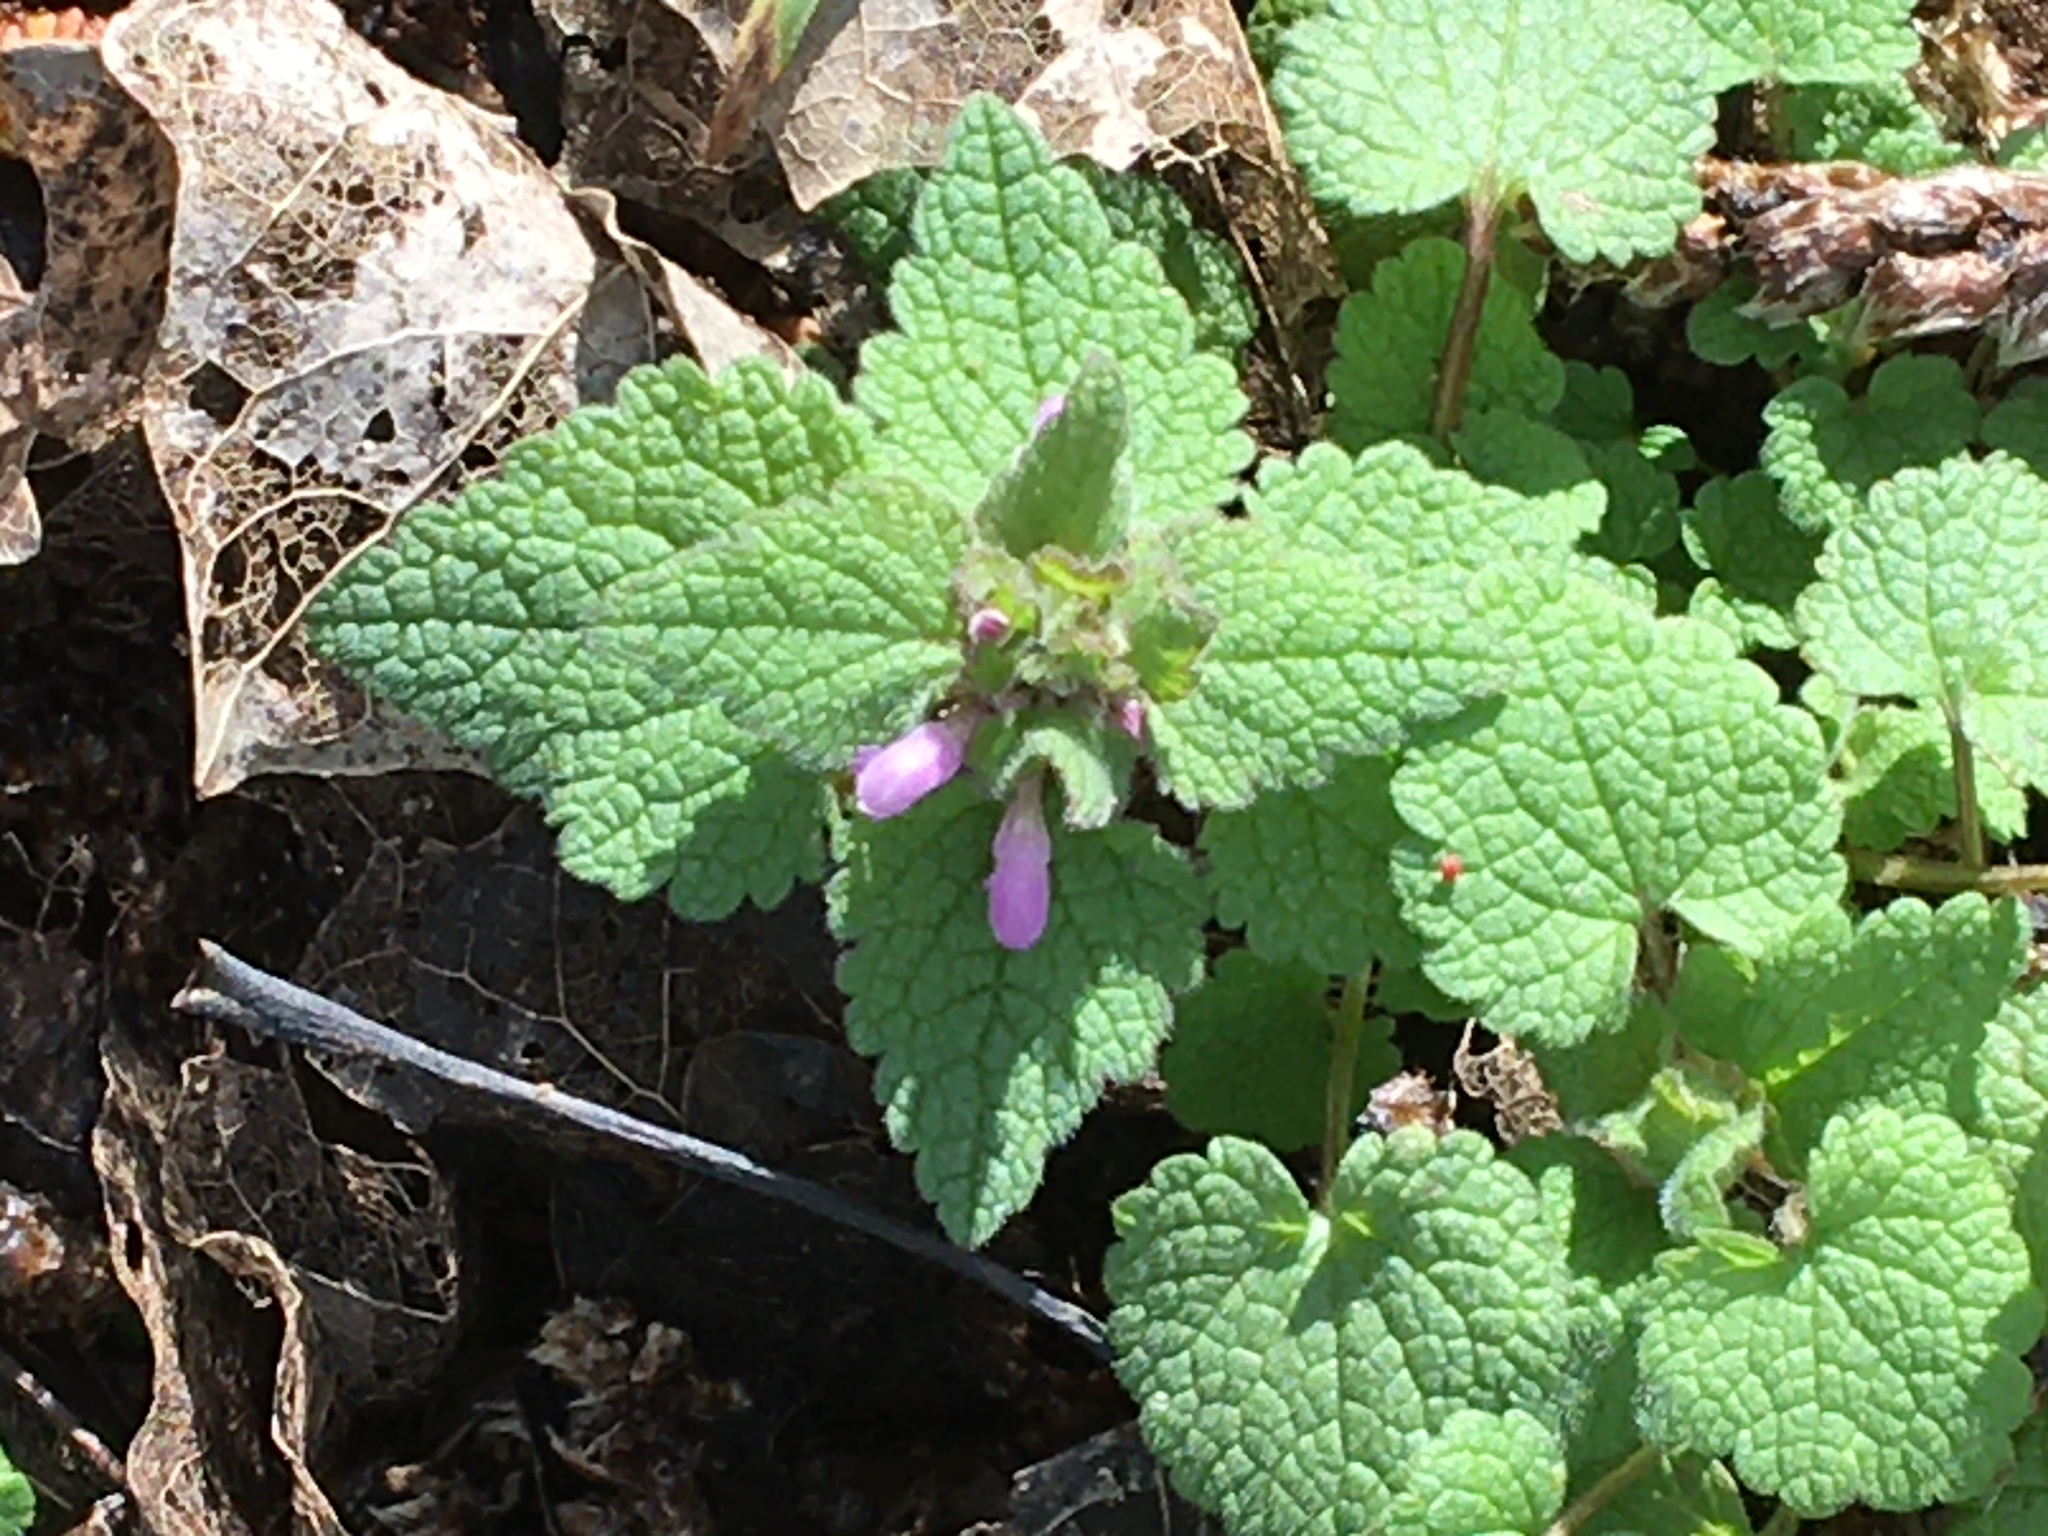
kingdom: Plantae
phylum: Tracheophyta
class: Magnoliopsida
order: Lamiales
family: Lamiaceae
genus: Lamium
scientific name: Lamium purpureum
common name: Red dead-nettle
